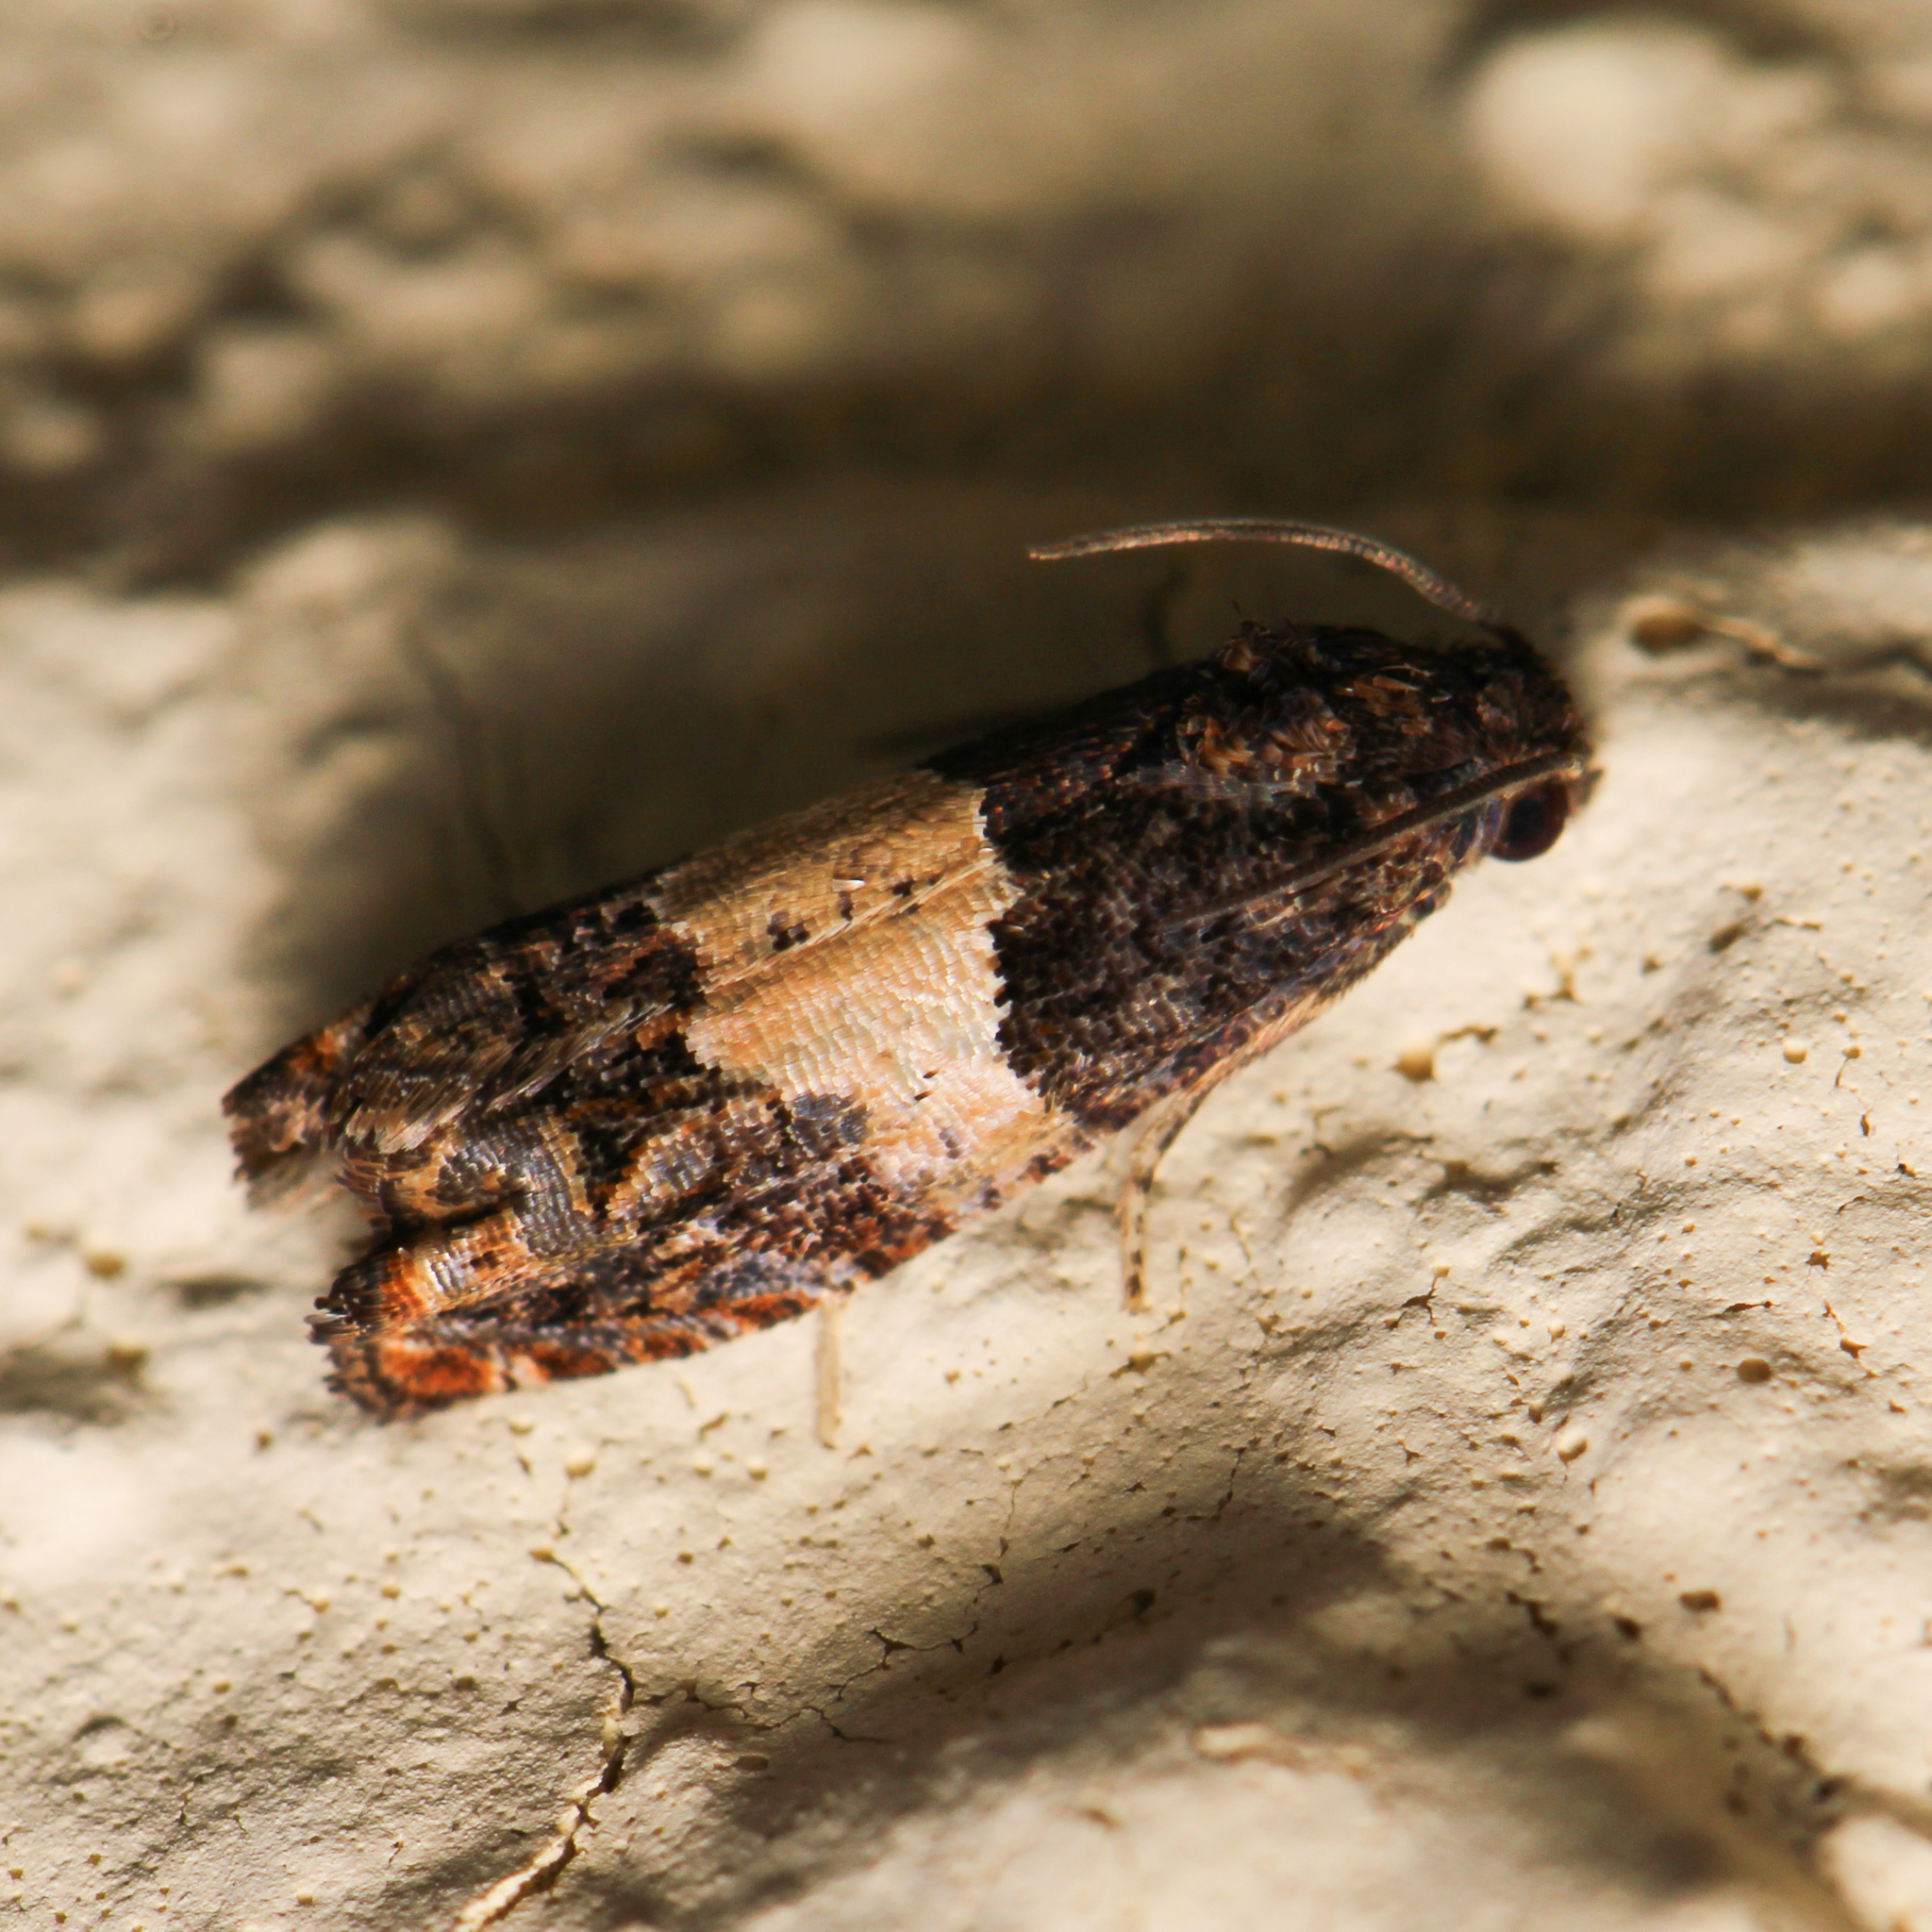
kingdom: Animalia
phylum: Arthropoda
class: Insecta
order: Lepidoptera
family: Tortricidae
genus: Epiblema
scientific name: Epiblema glenni
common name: Glenn's epiblema
